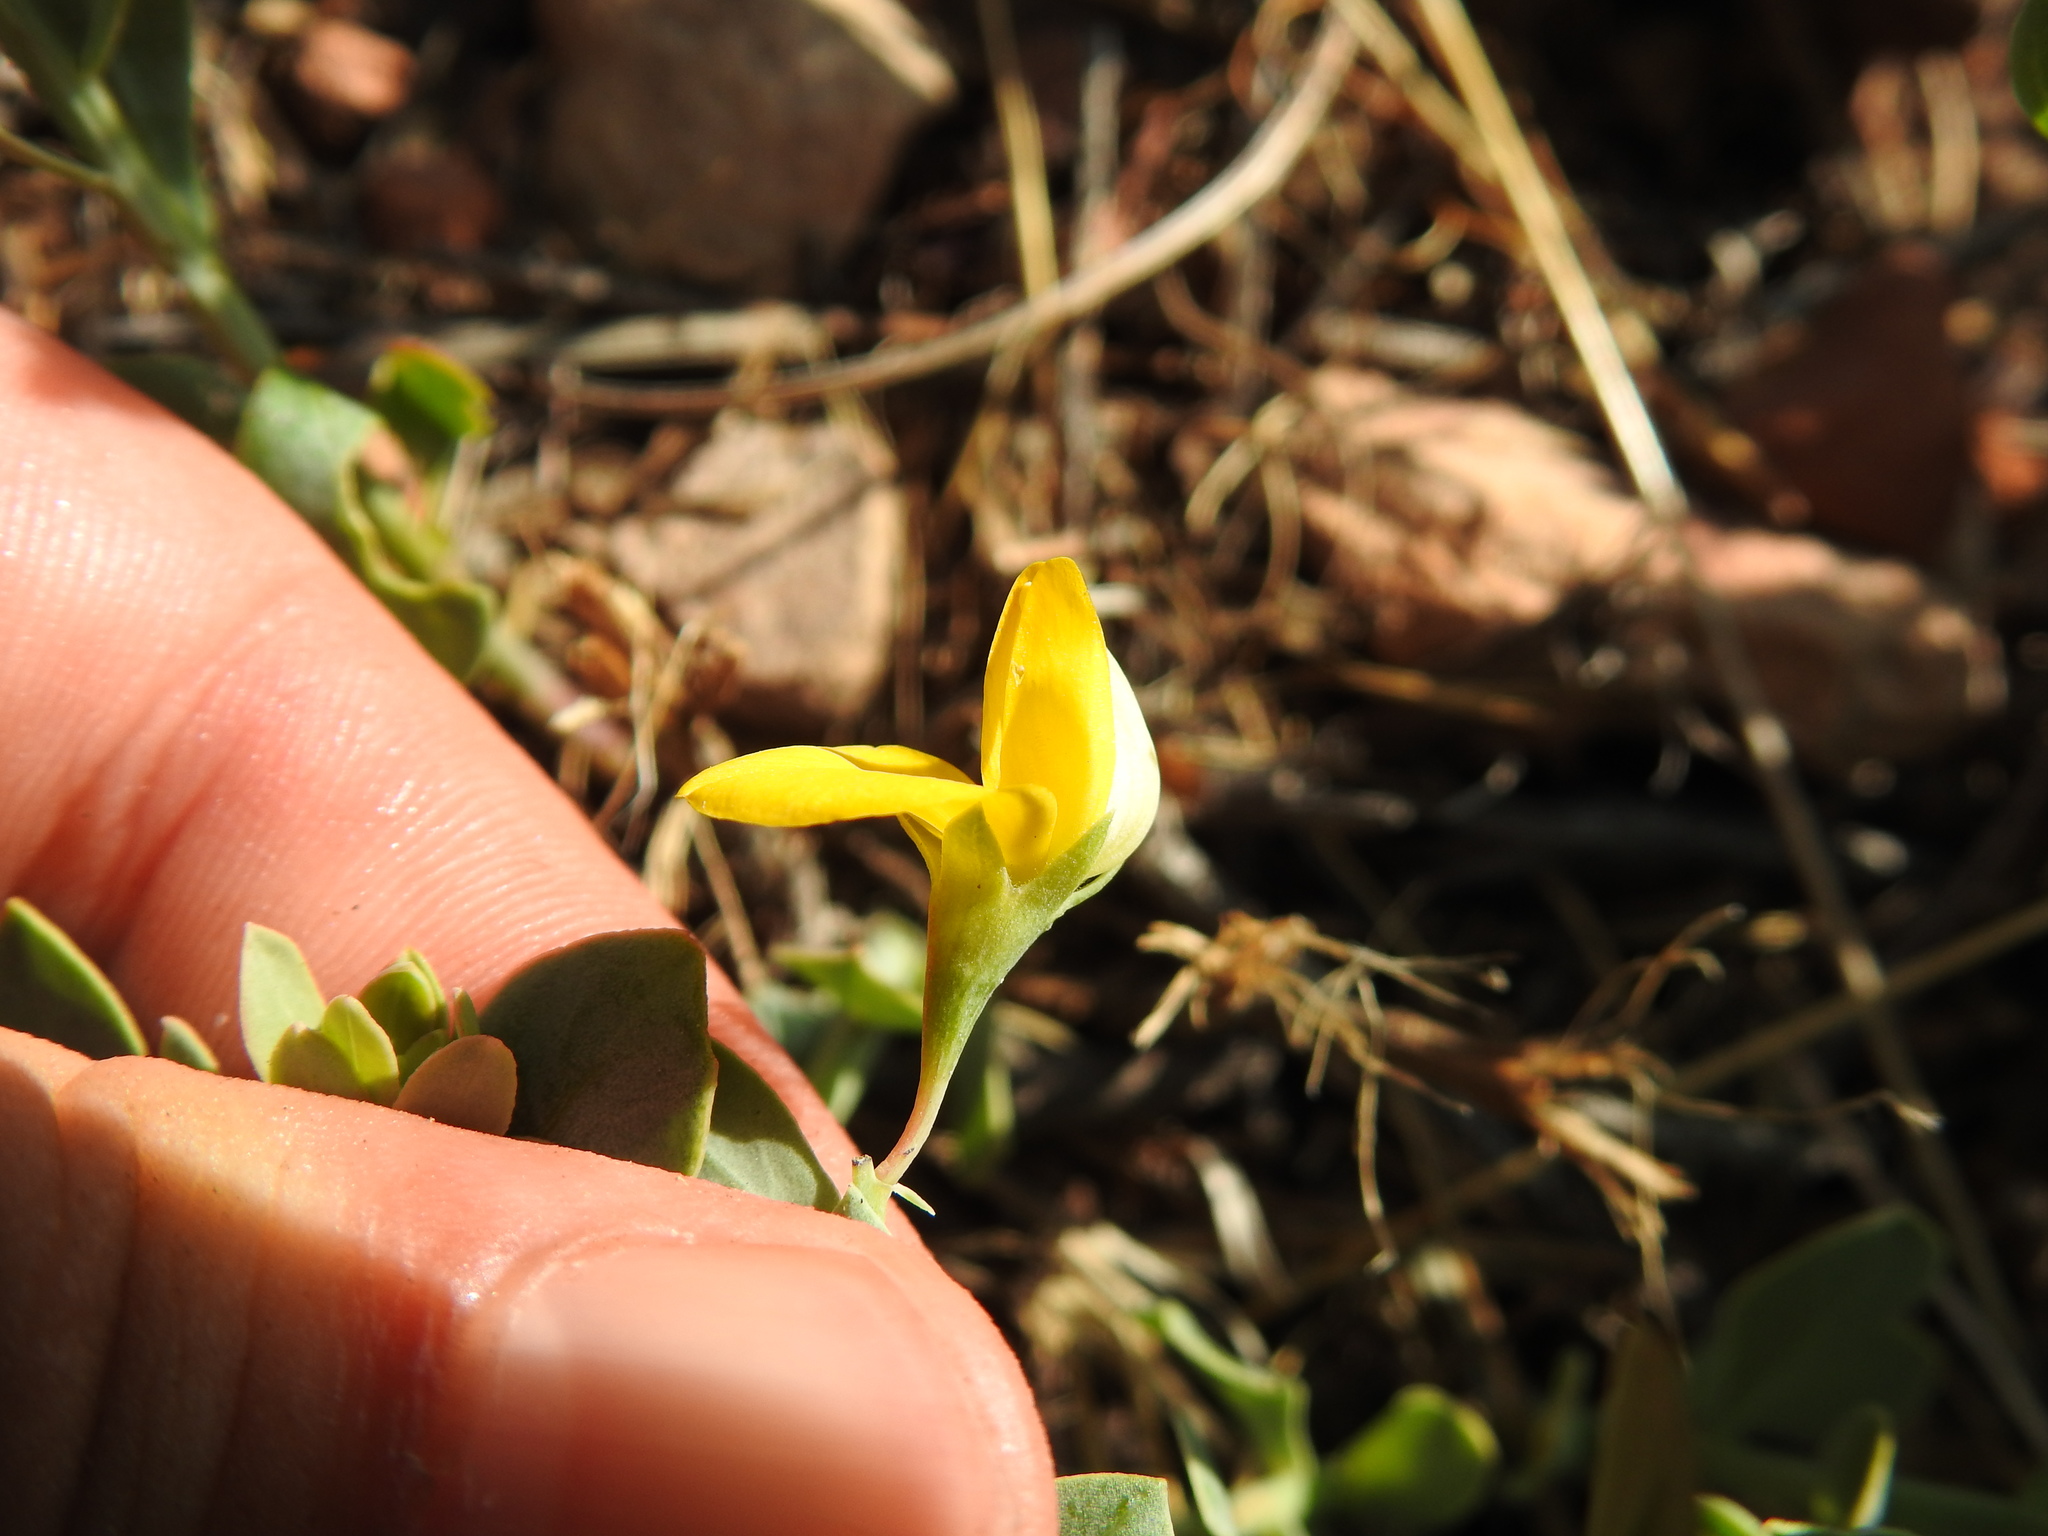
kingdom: Plantae
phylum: Tracheophyta
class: Magnoliopsida
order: Fabales
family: Fabaceae
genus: Rafnia
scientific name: Rafnia angulata
